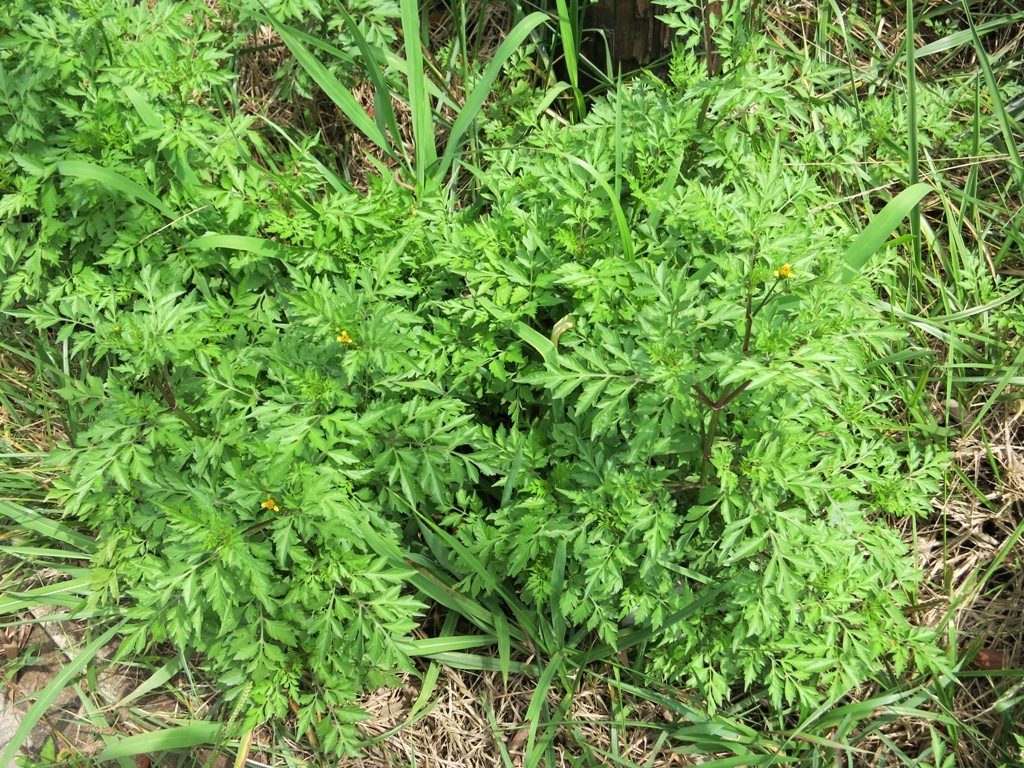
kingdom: Plantae
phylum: Tracheophyta
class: Magnoliopsida
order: Asterales
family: Asteraceae
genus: Bidens
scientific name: Bidens bipinnata
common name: Spanish-needles
